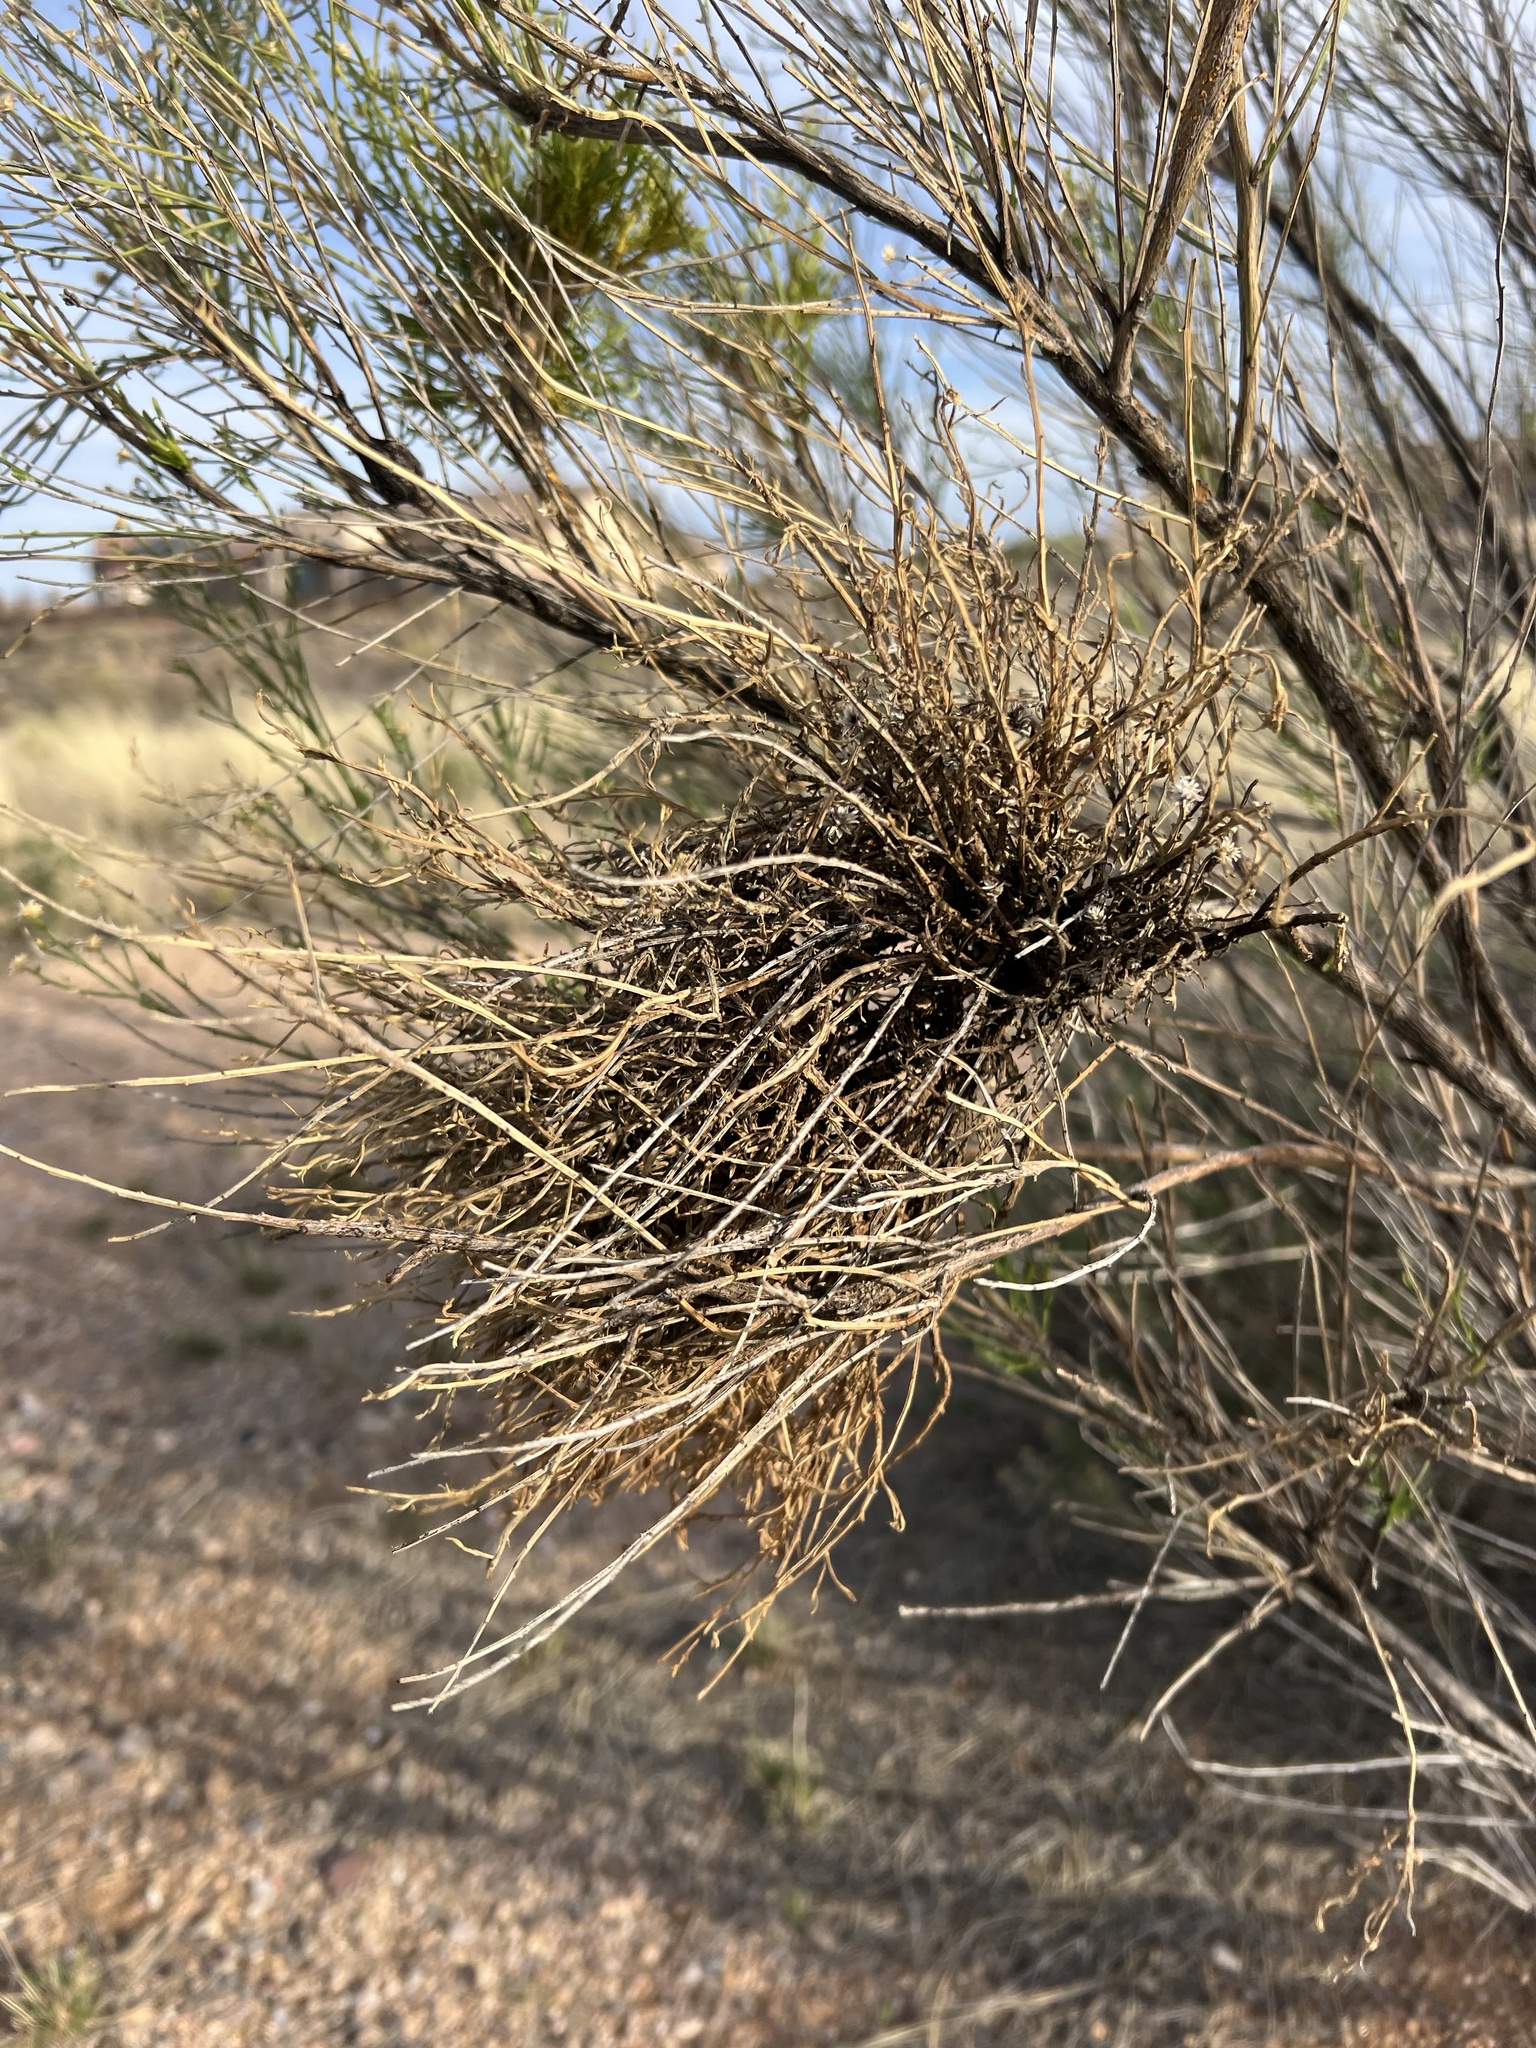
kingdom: Plantae
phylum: Tracheophyta
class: Magnoliopsida
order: Santalales
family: Viscaceae
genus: Phoradendron
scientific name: Phoradendron californicum
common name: Acacia mistletoe
